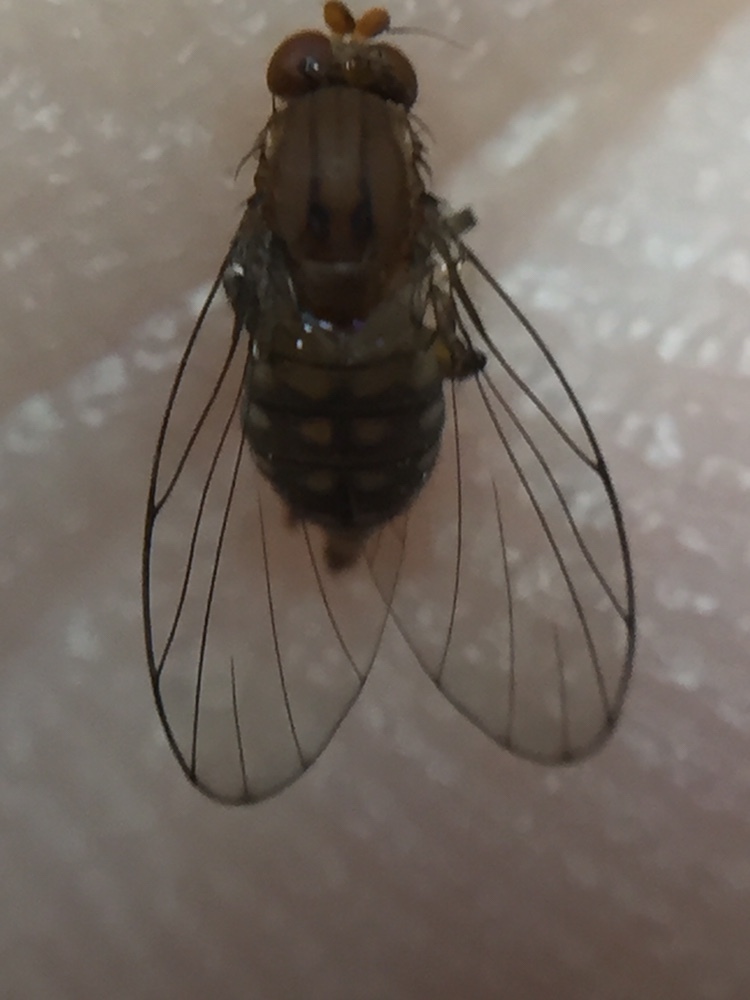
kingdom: Animalia
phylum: Arthropoda
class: Insecta
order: Diptera
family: Phoridae
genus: Sciadocera
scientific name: Sciadocera rufomaculata
